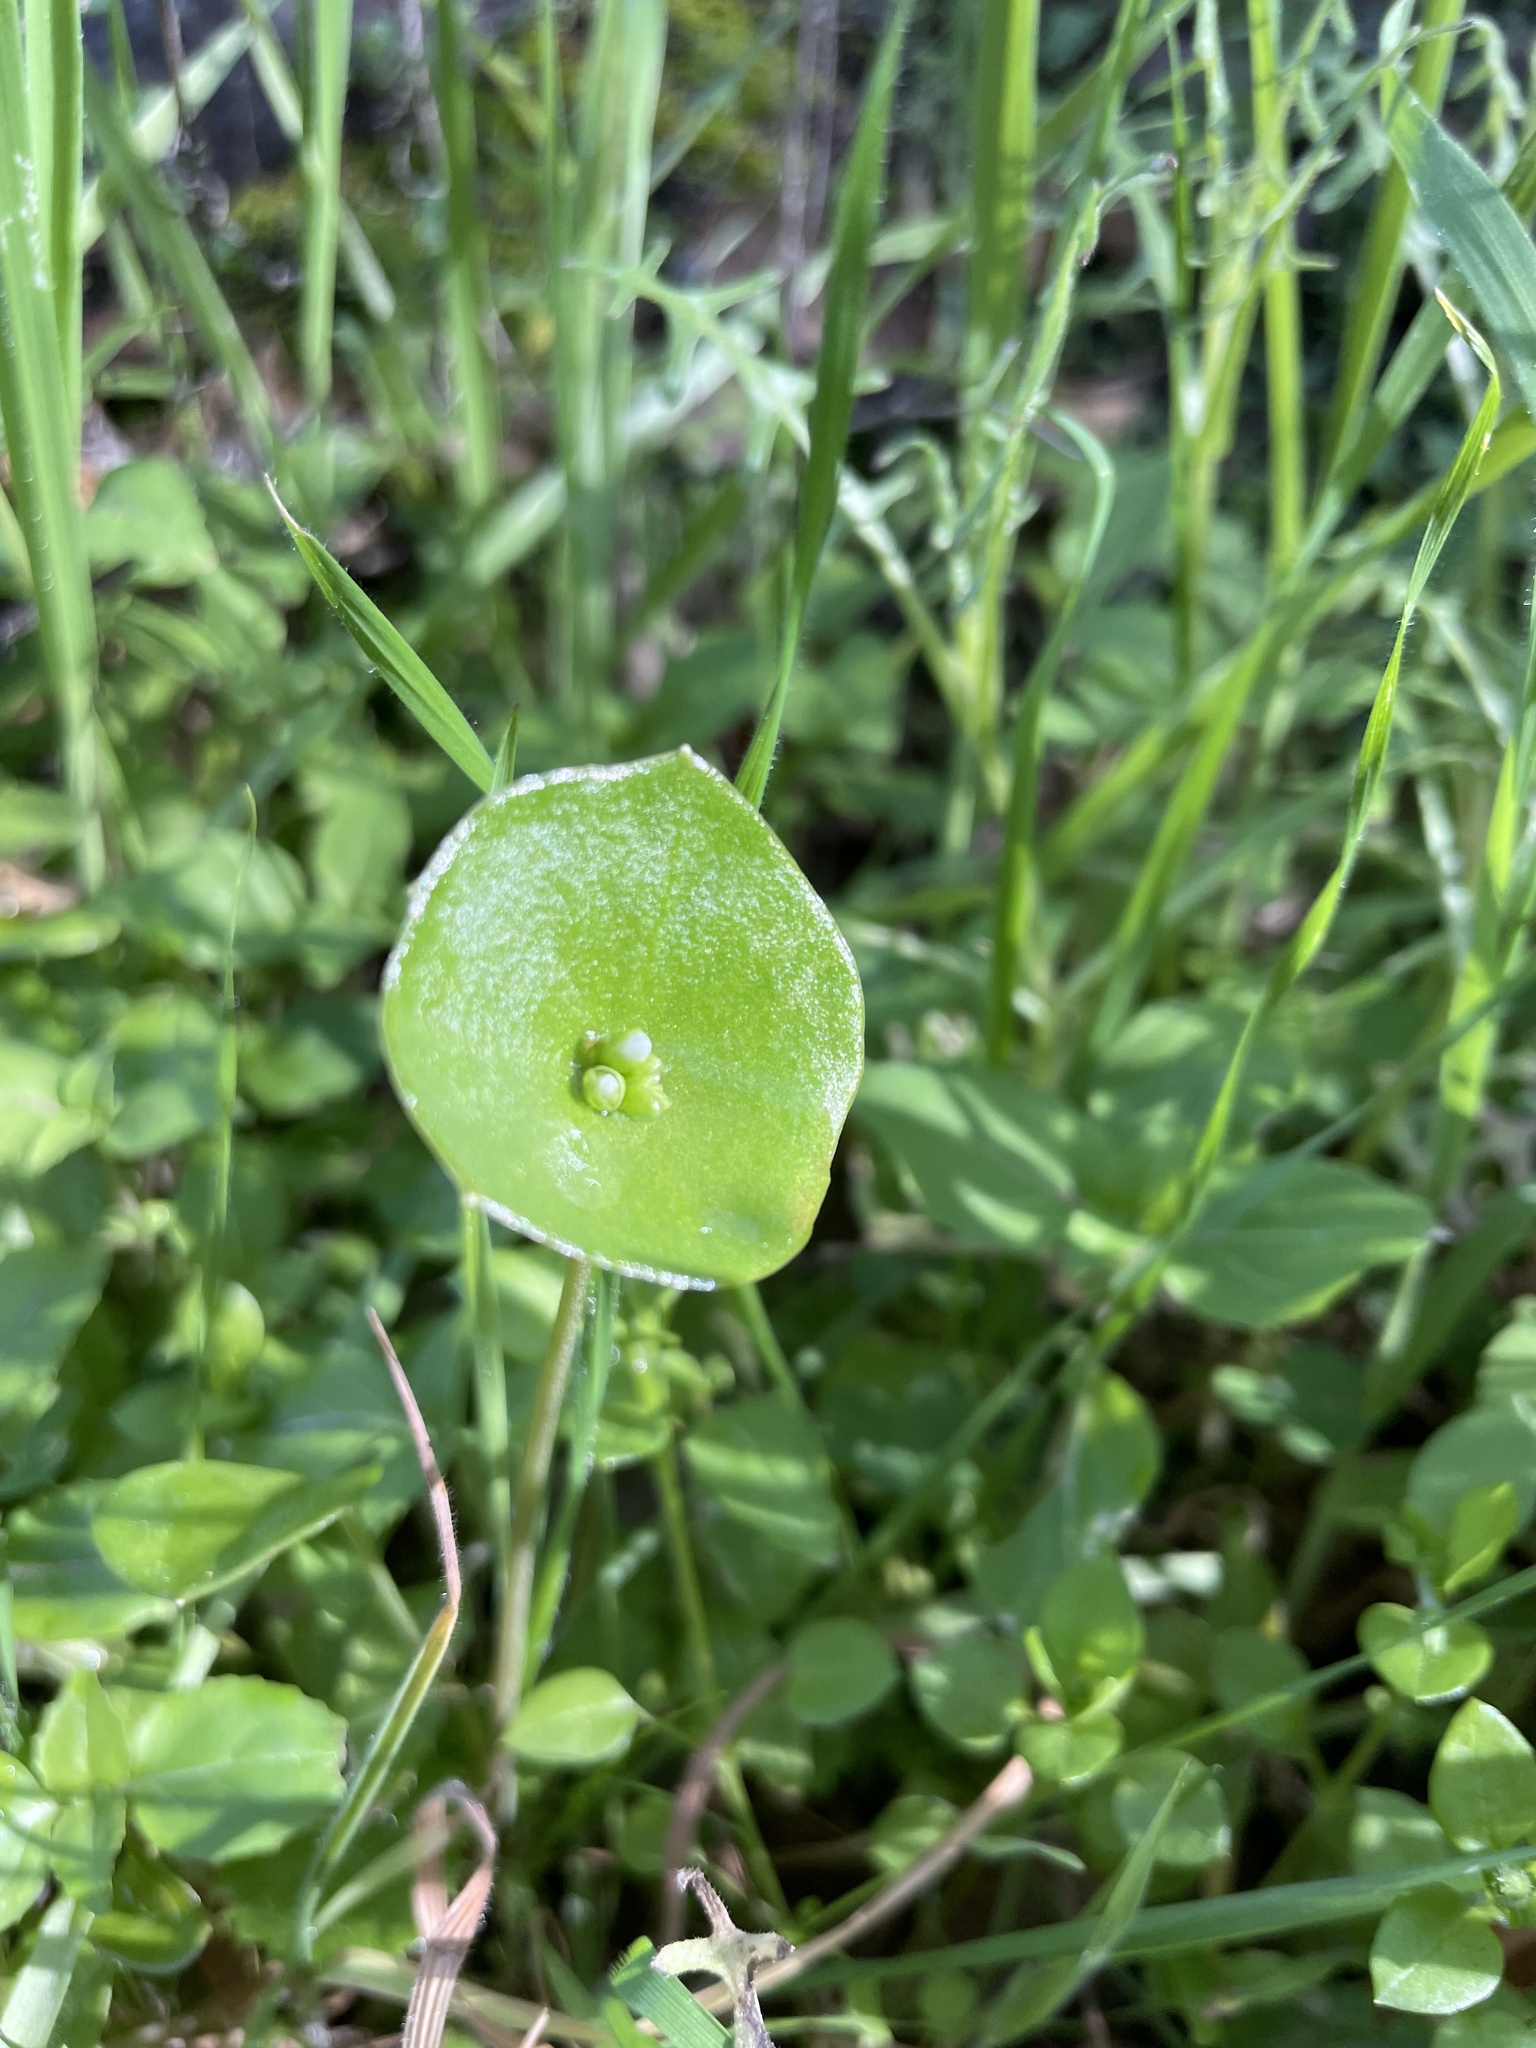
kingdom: Plantae
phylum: Tracheophyta
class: Magnoliopsida
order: Caryophyllales
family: Montiaceae
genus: Claytonia
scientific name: Claytonia perfoliata
